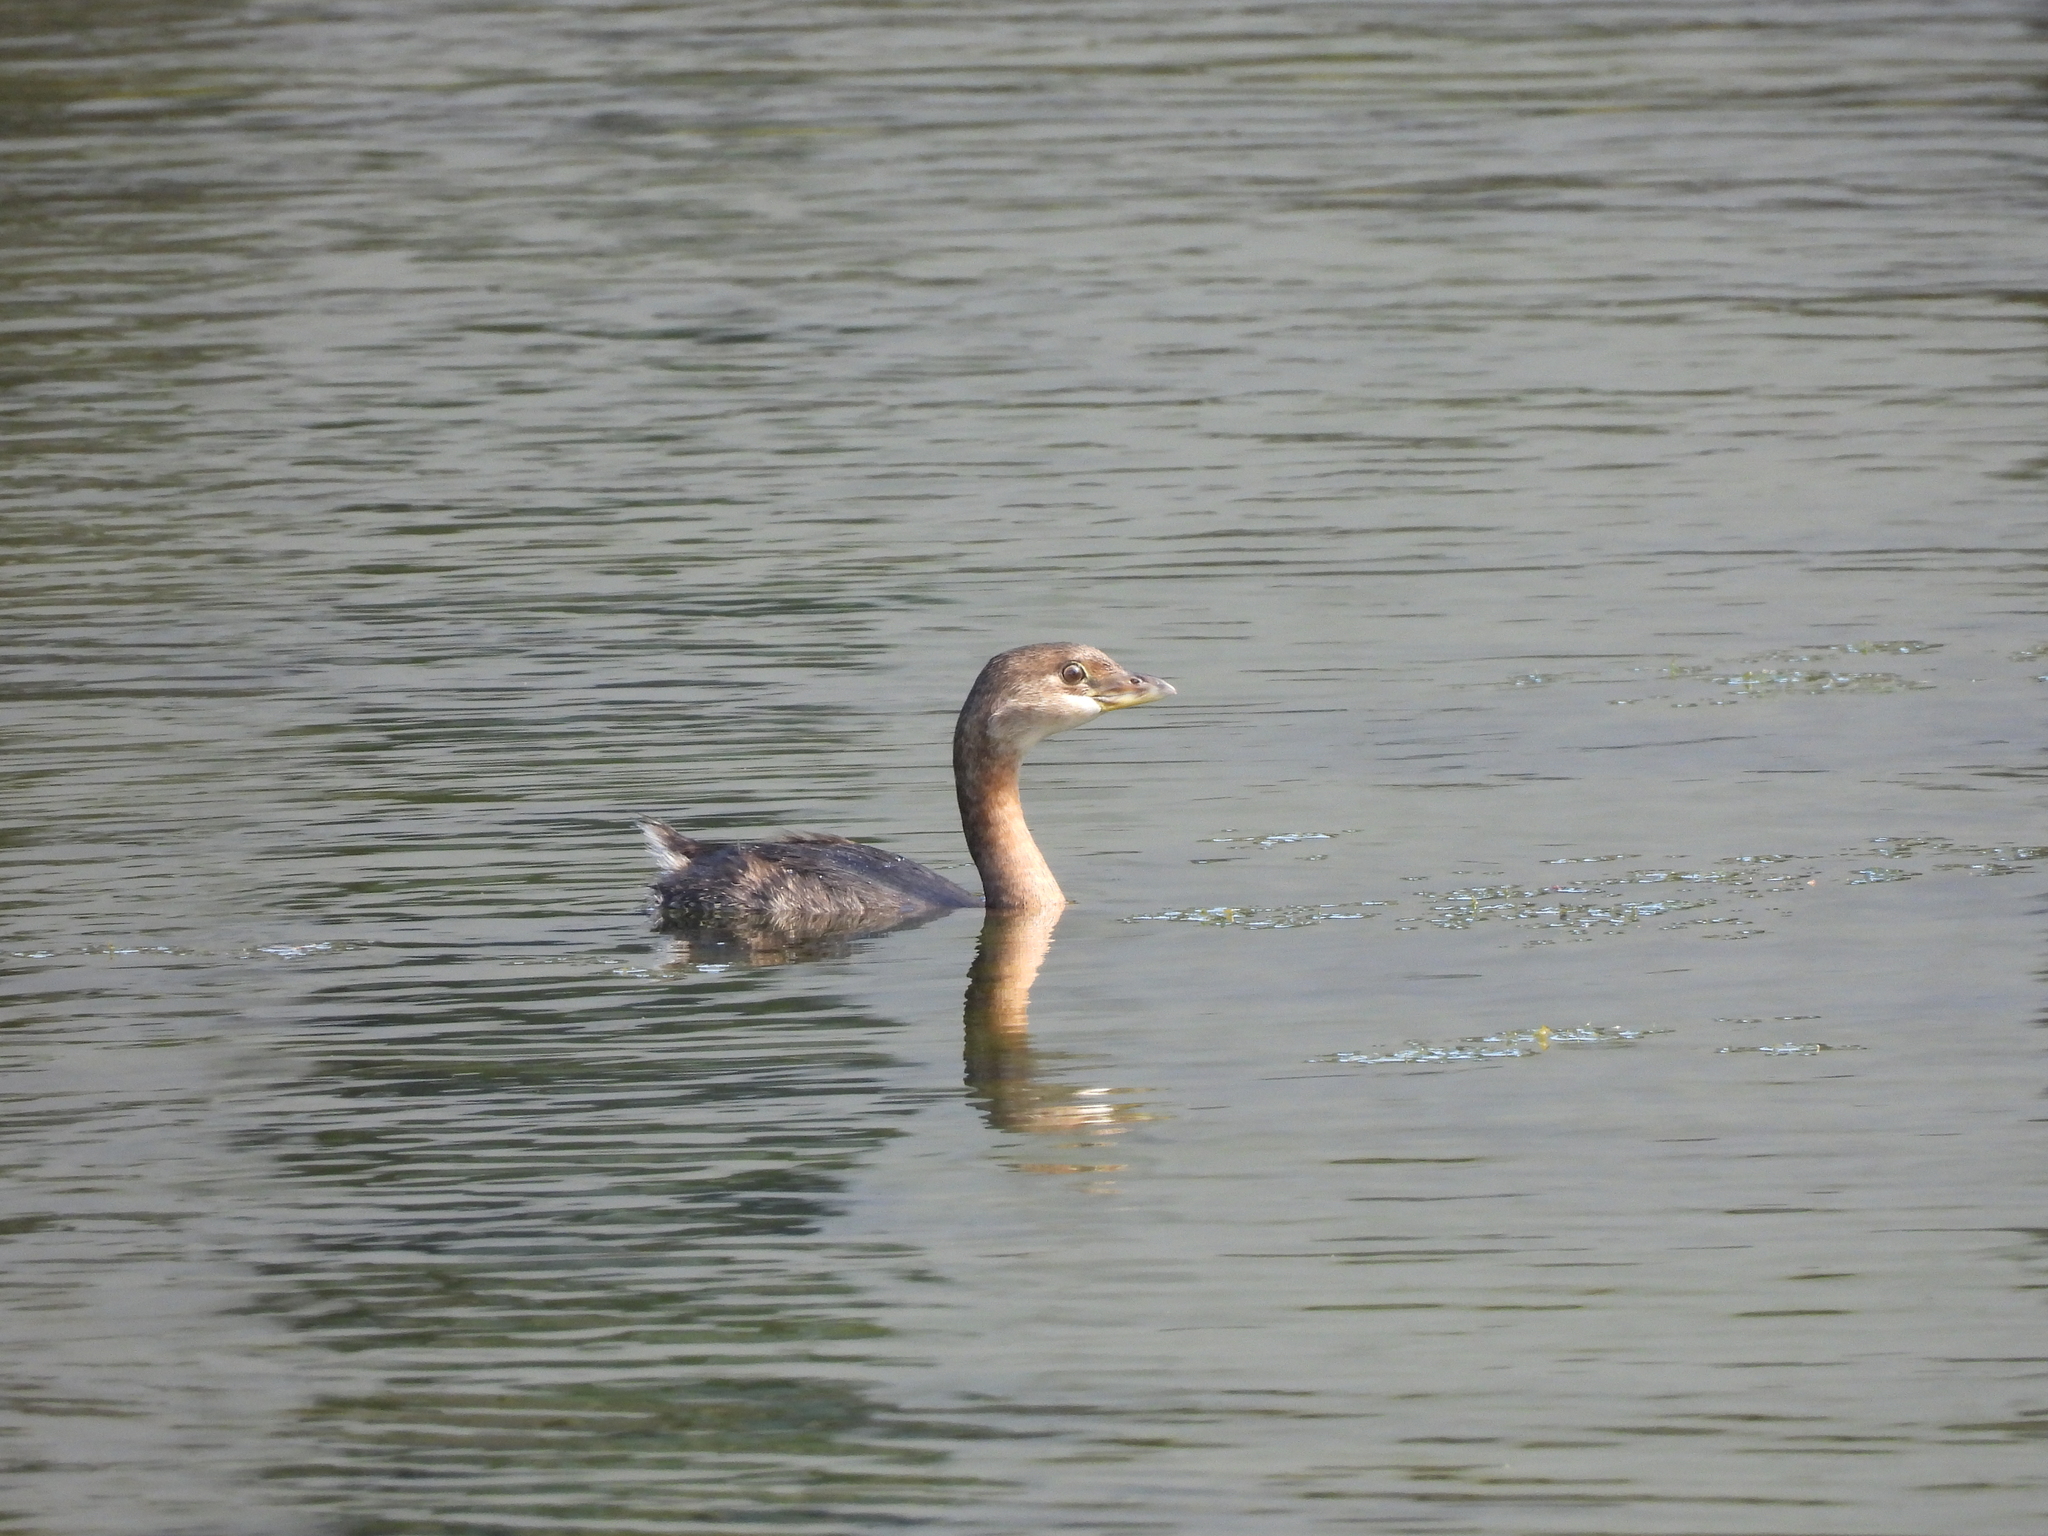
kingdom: Animalia
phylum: Chordata
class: Aves
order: Podicipediformes
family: Podicipedidae
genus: Podilymbus
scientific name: Podilymbus podiceps
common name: Pied-billed grebe
